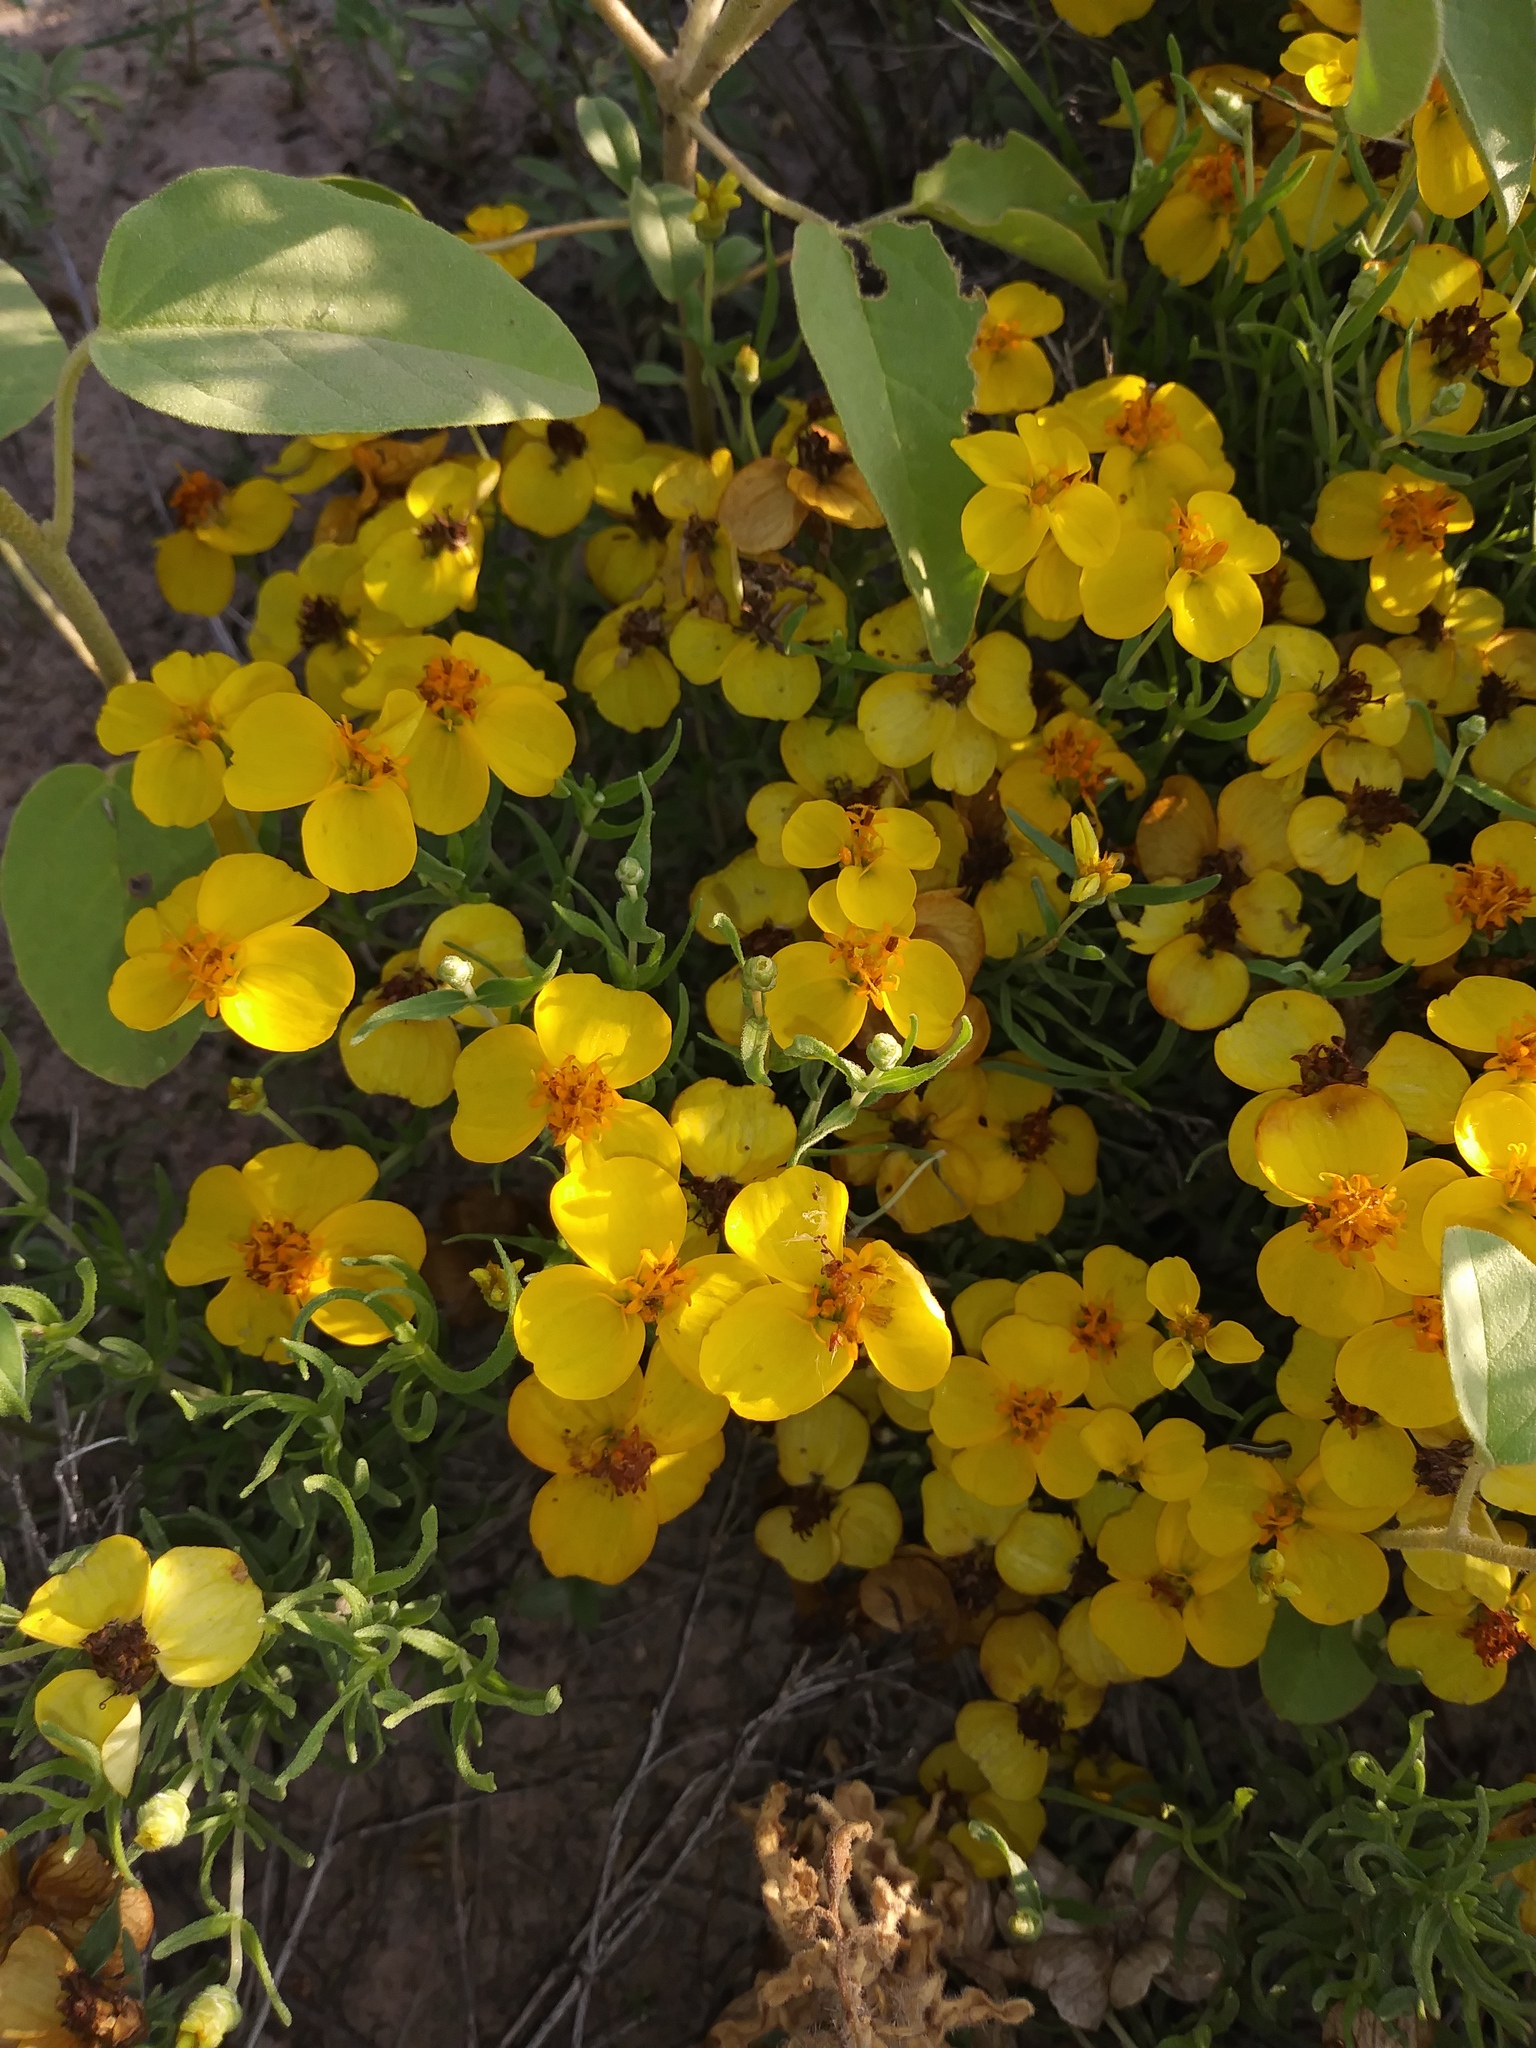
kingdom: Plantae
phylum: Tracheophyta
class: Magnoliopsida
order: Asterales
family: Asteraceae
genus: Zinnia
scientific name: Zinnia grandiflora
